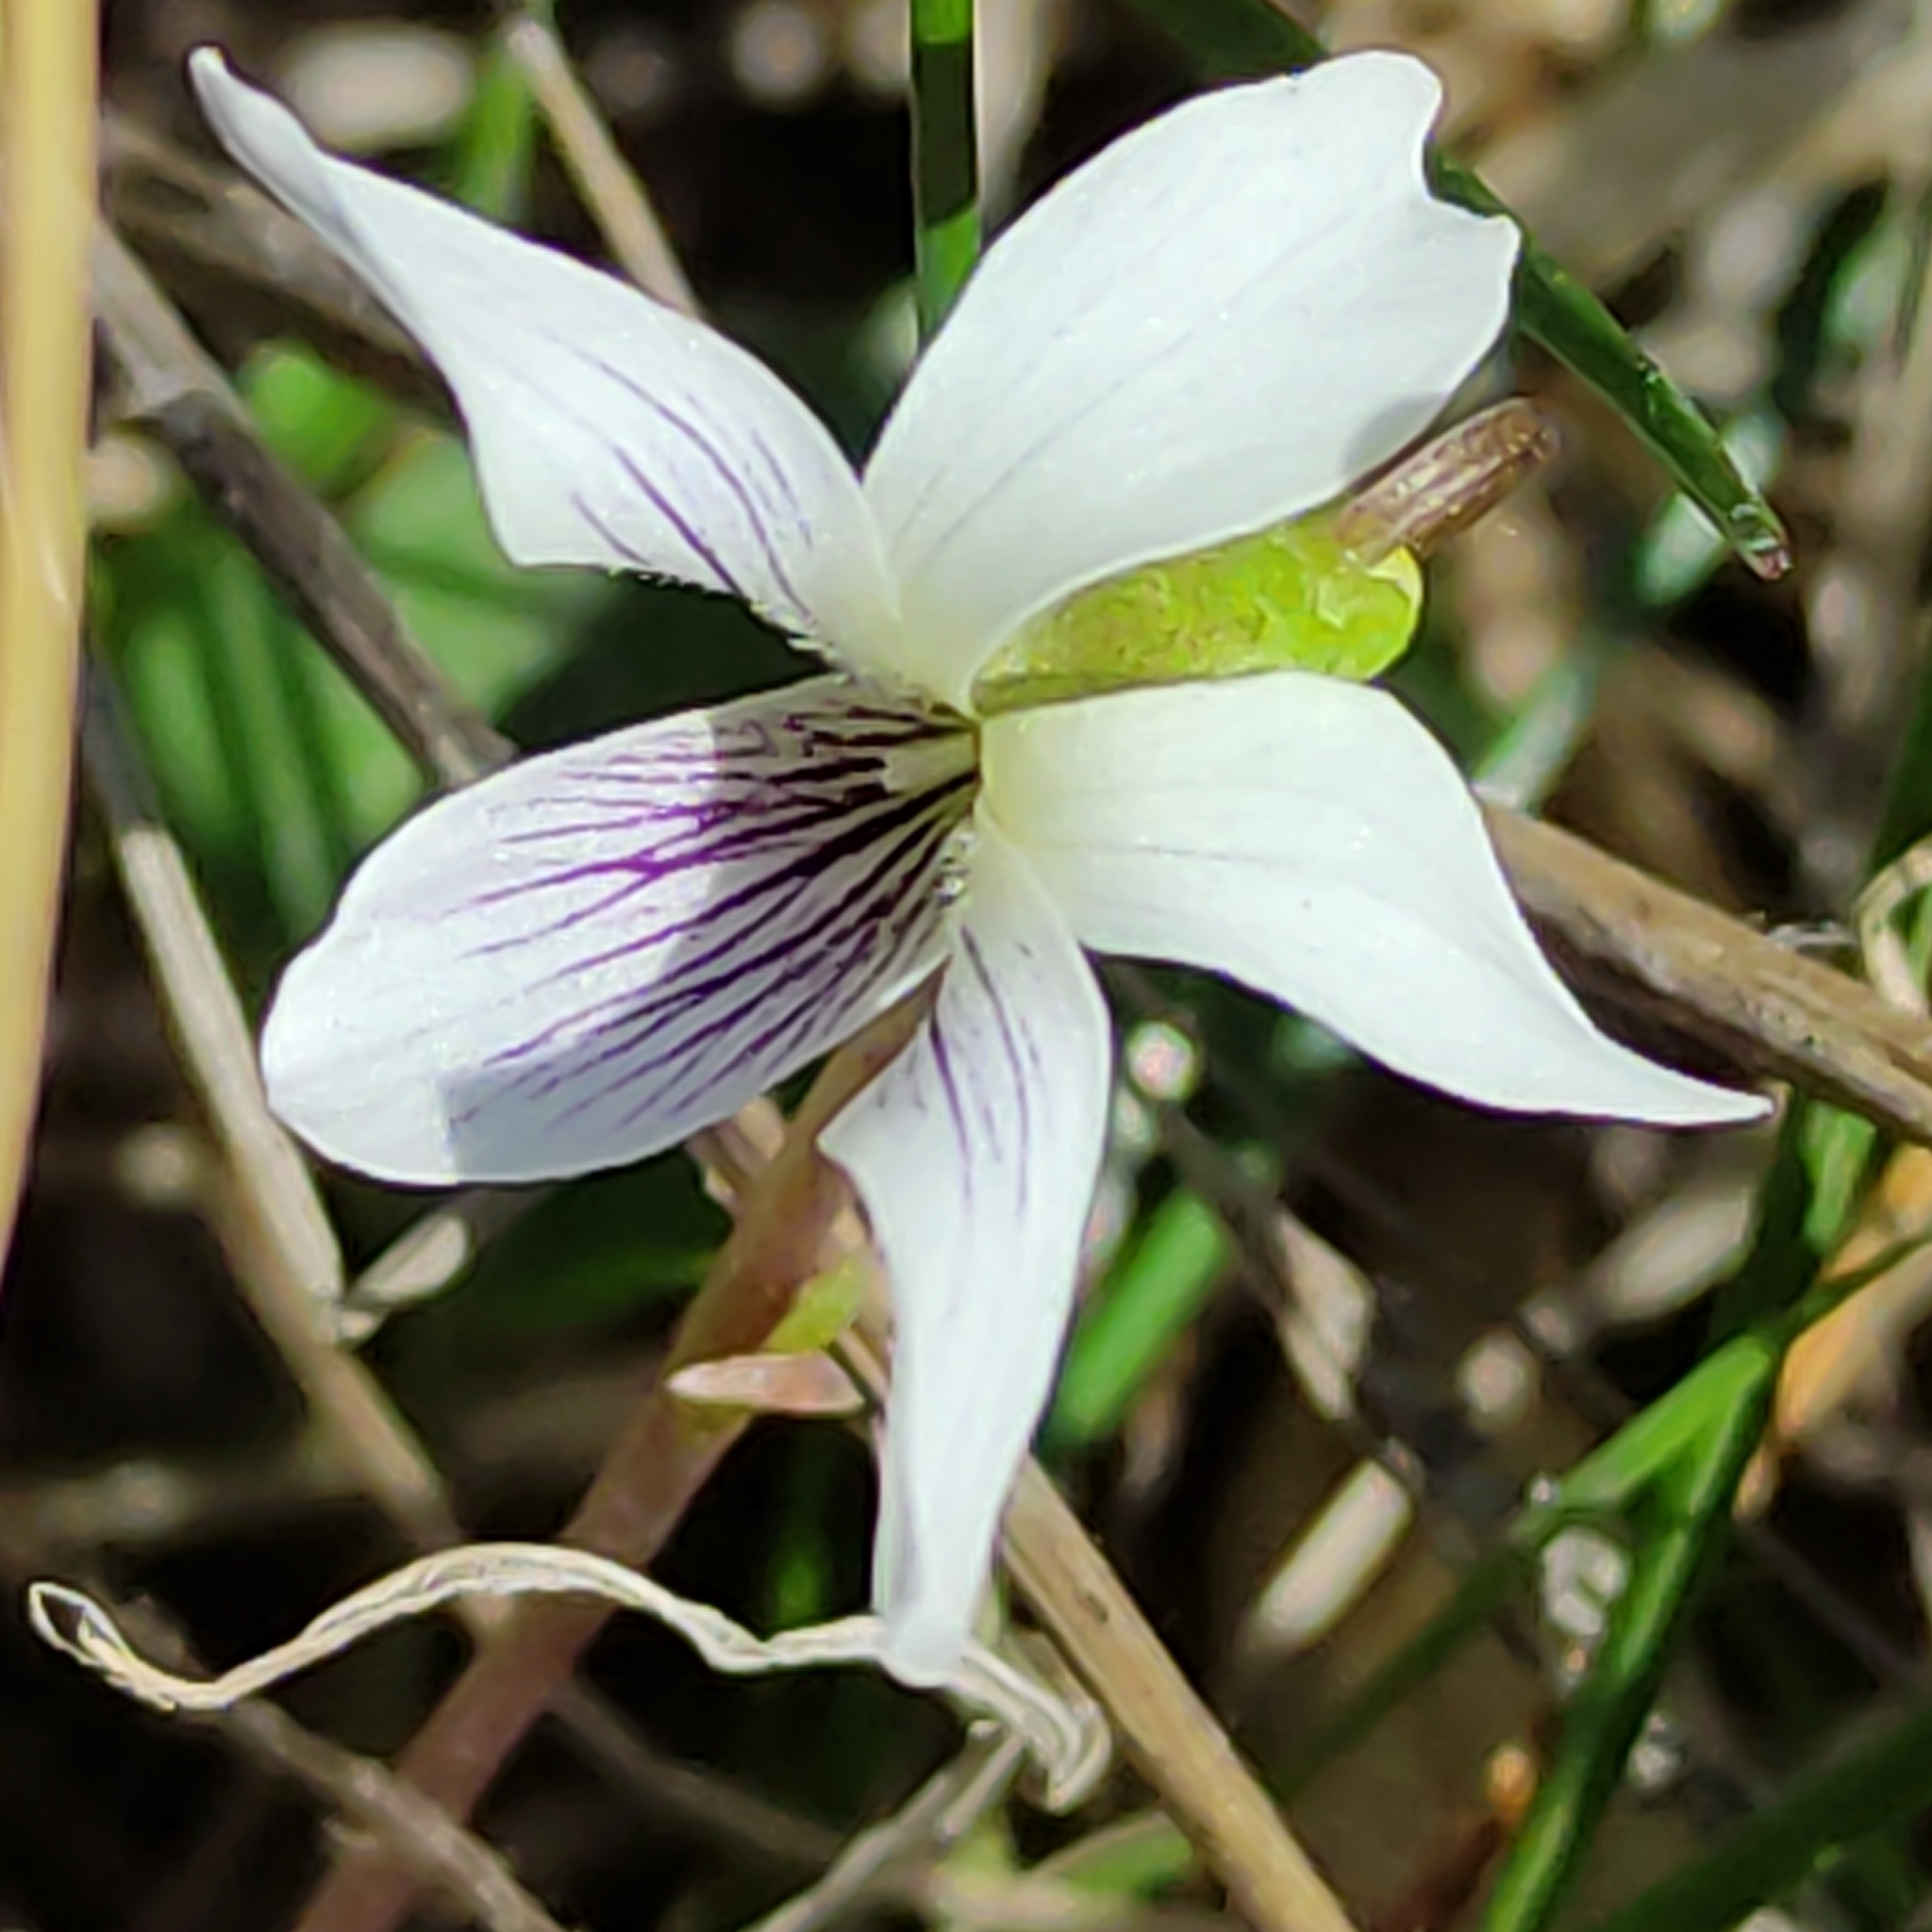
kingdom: Plantae
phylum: Tracheophyta
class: Magnoliopsida
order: Malpighiales
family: Violaceae
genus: Viola
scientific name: Viola cunninghamii
